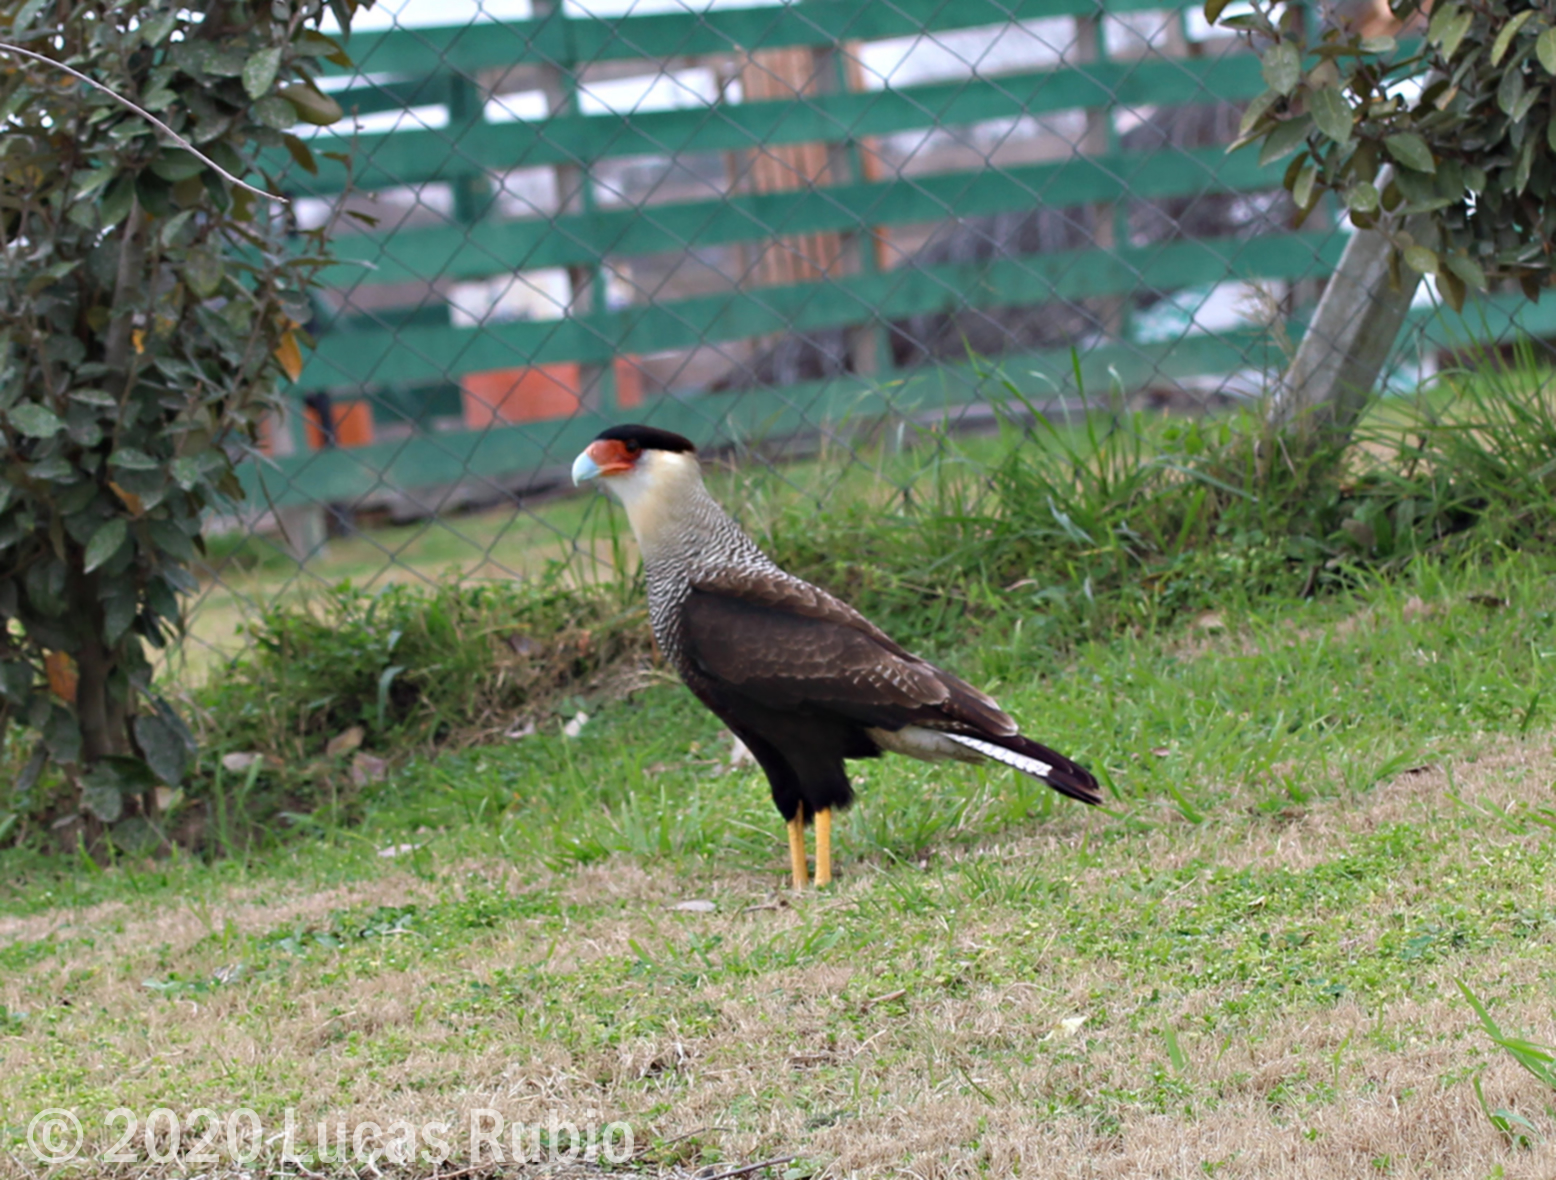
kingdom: Animalia
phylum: Chordata
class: Aves
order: Falconiformes
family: Falconidae
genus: Caracara
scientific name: Caracara plancus
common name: Southern caracara
